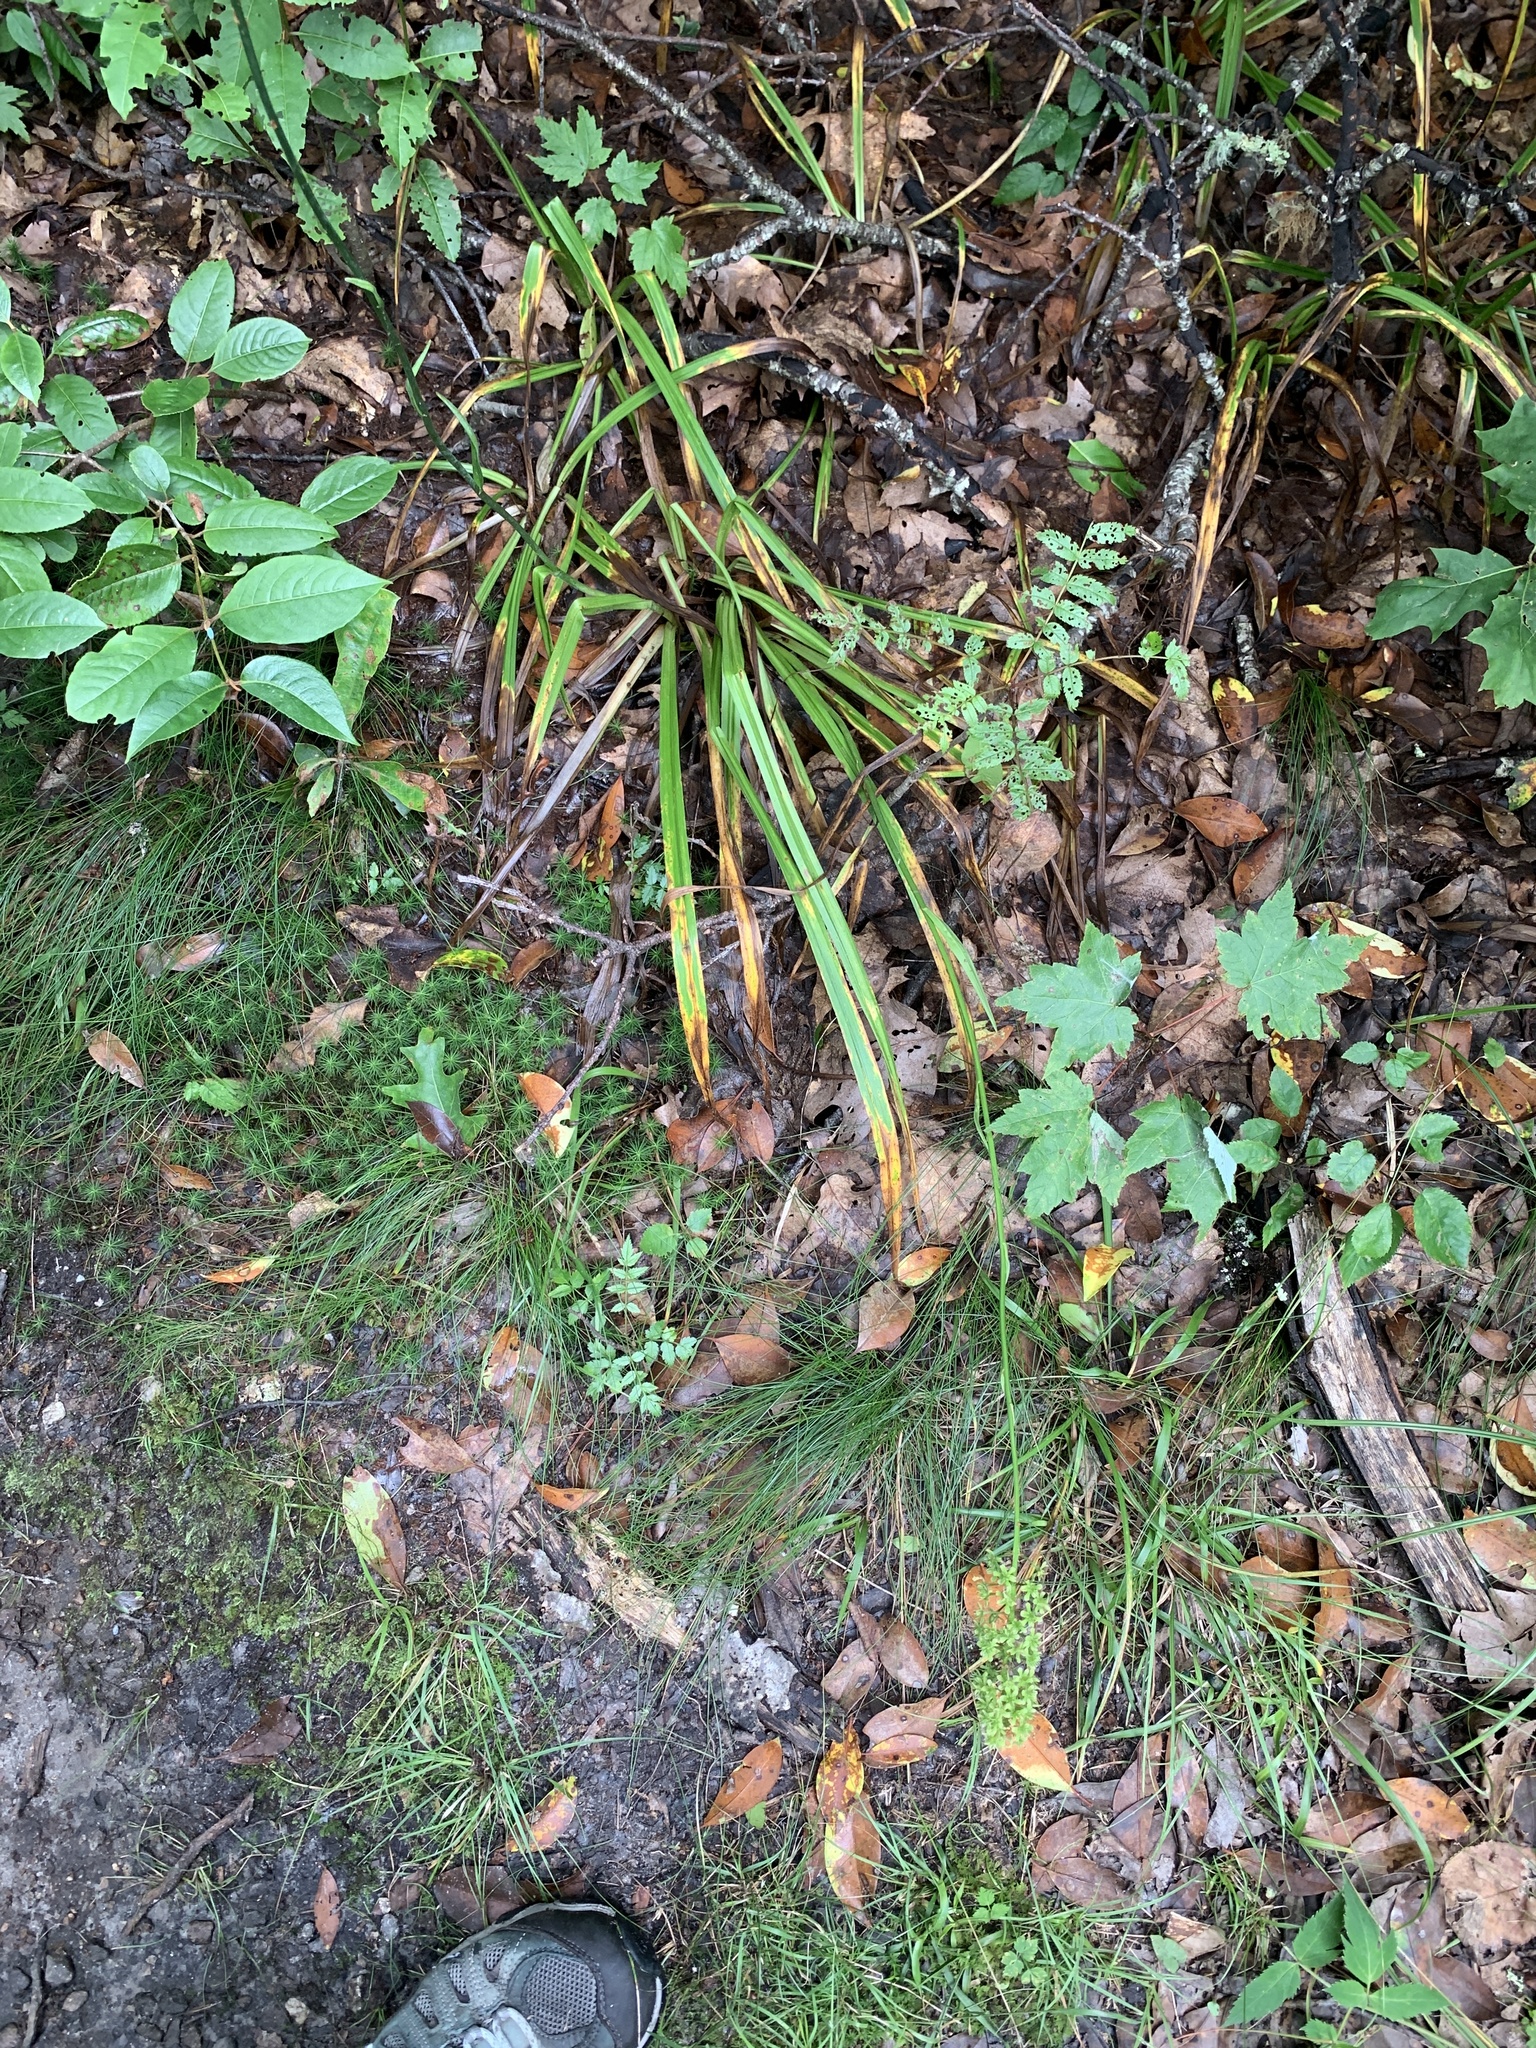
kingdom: Plantae
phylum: Tracheophyta
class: Liliopsida
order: Liliales
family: Melanthiaceae
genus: Amianthium
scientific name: Amianthium muscitoxicum
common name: Fly-poison
